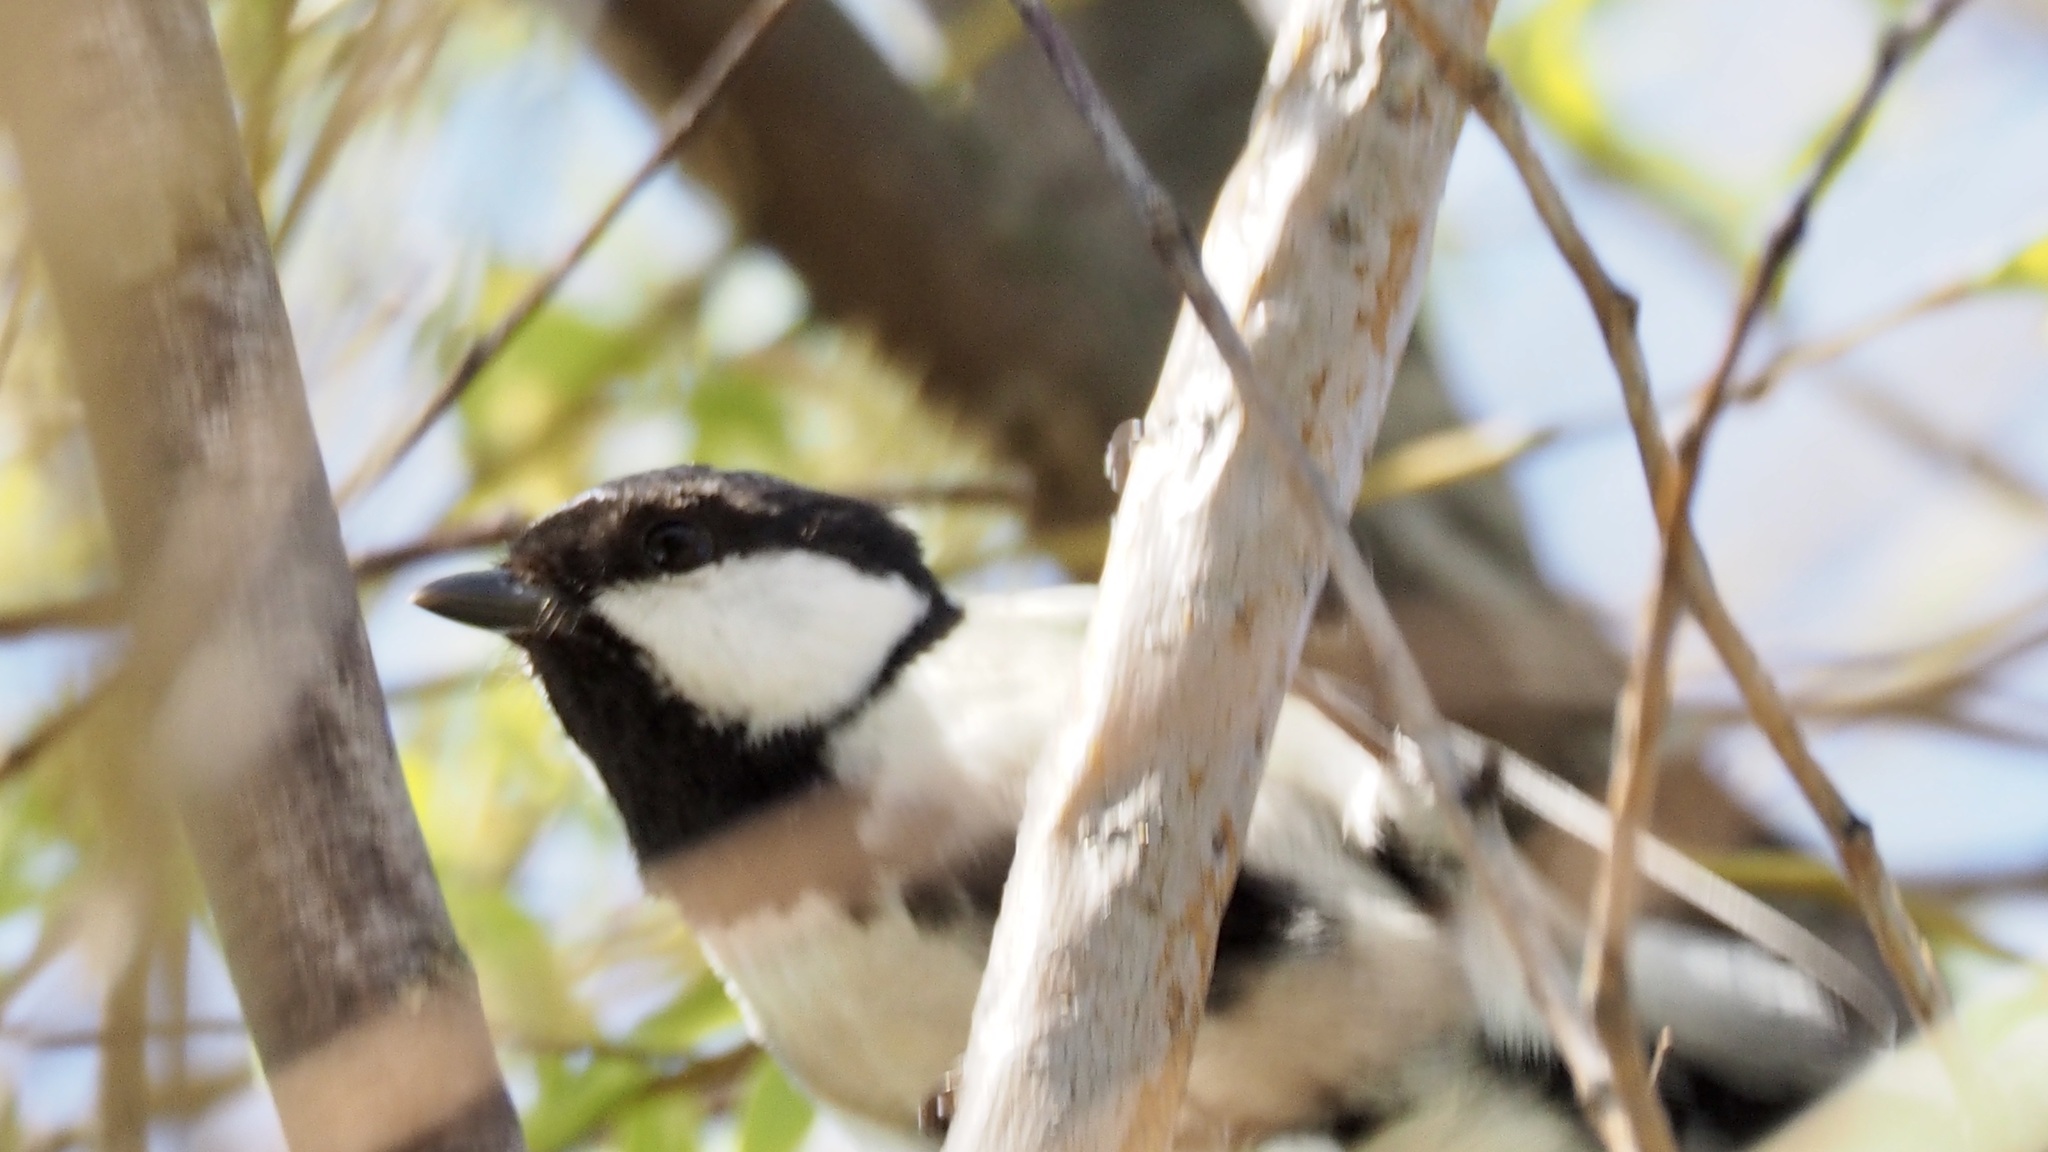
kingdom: Animalia
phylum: Chordata
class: Aves
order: Passeriformes
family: Paridae
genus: Parus
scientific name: Parus minor
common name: Japanese tit
